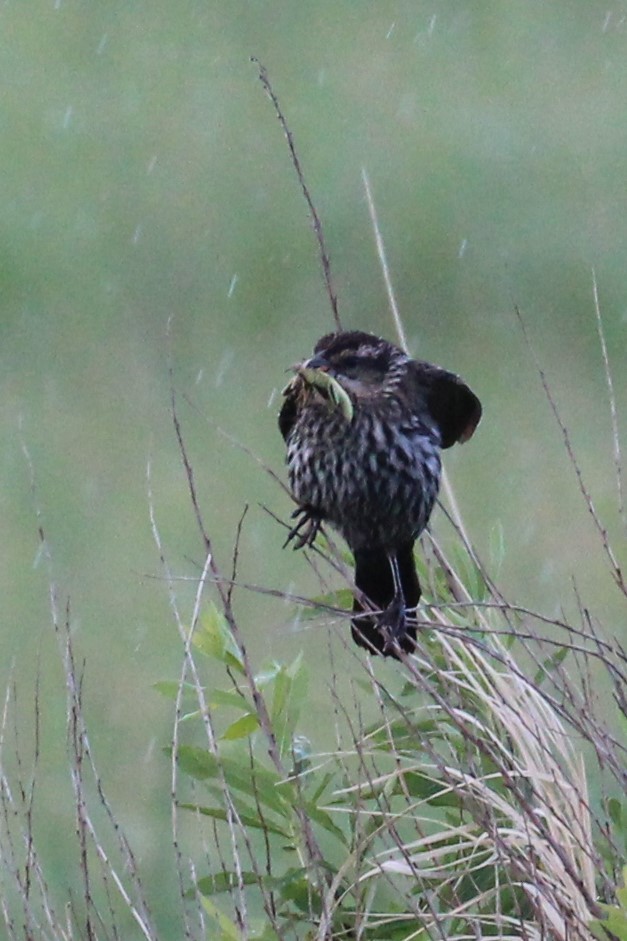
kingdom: Animalia
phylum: Chordata
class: Aves
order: Passeriformes
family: Icteridae
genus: Agelaius
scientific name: Agelaius phoeniceus
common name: Red-winged blackbird
